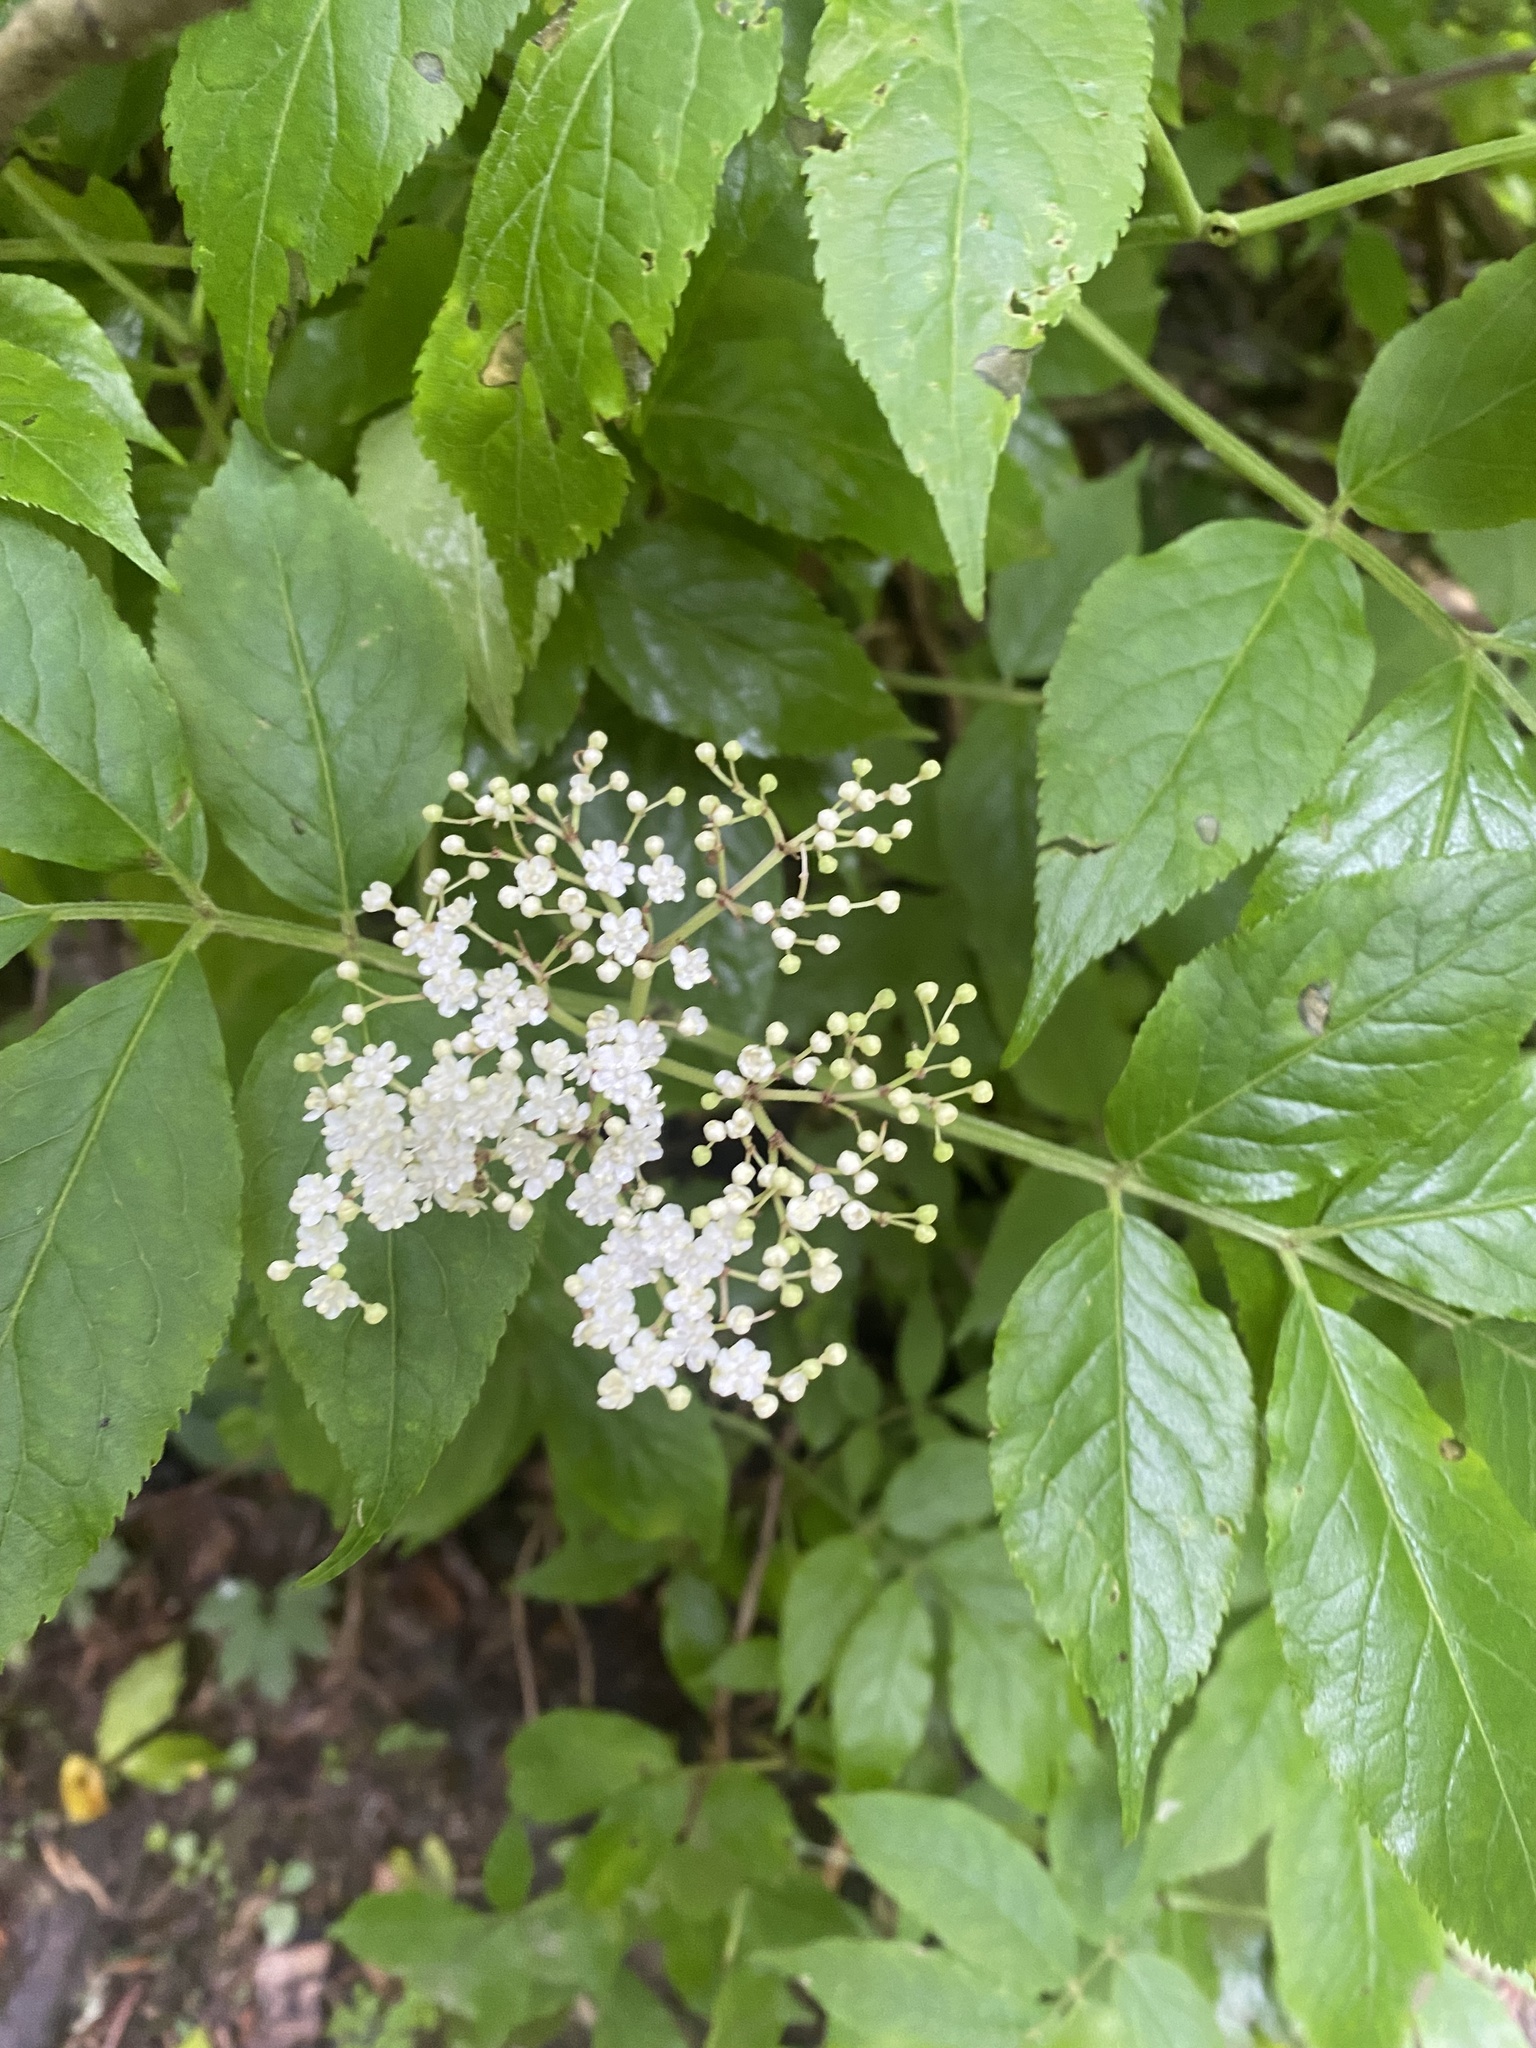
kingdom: Plantae
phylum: Tracheophyta
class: Magnoliopsida
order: Dipsacales
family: Viburnaceae
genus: Sambucus
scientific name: Sambucus nigra
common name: Elder
